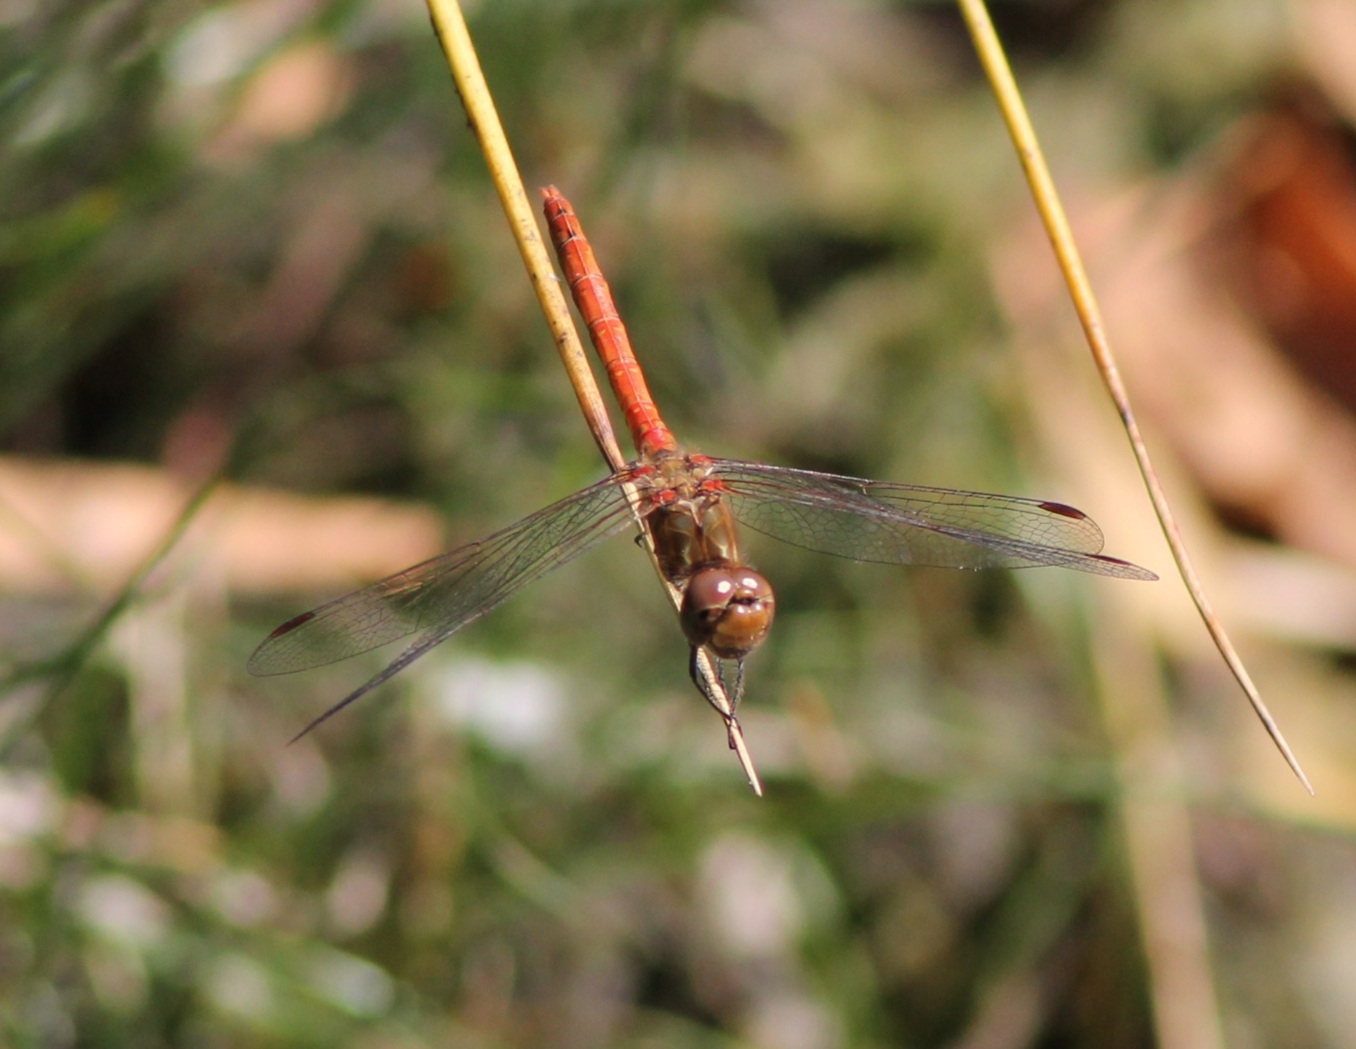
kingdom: Animalia
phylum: Arthropoda
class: Insecta
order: Odonata
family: Libellulidae
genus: Sympetrum
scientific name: Sympetrum striolatum
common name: Common darter
